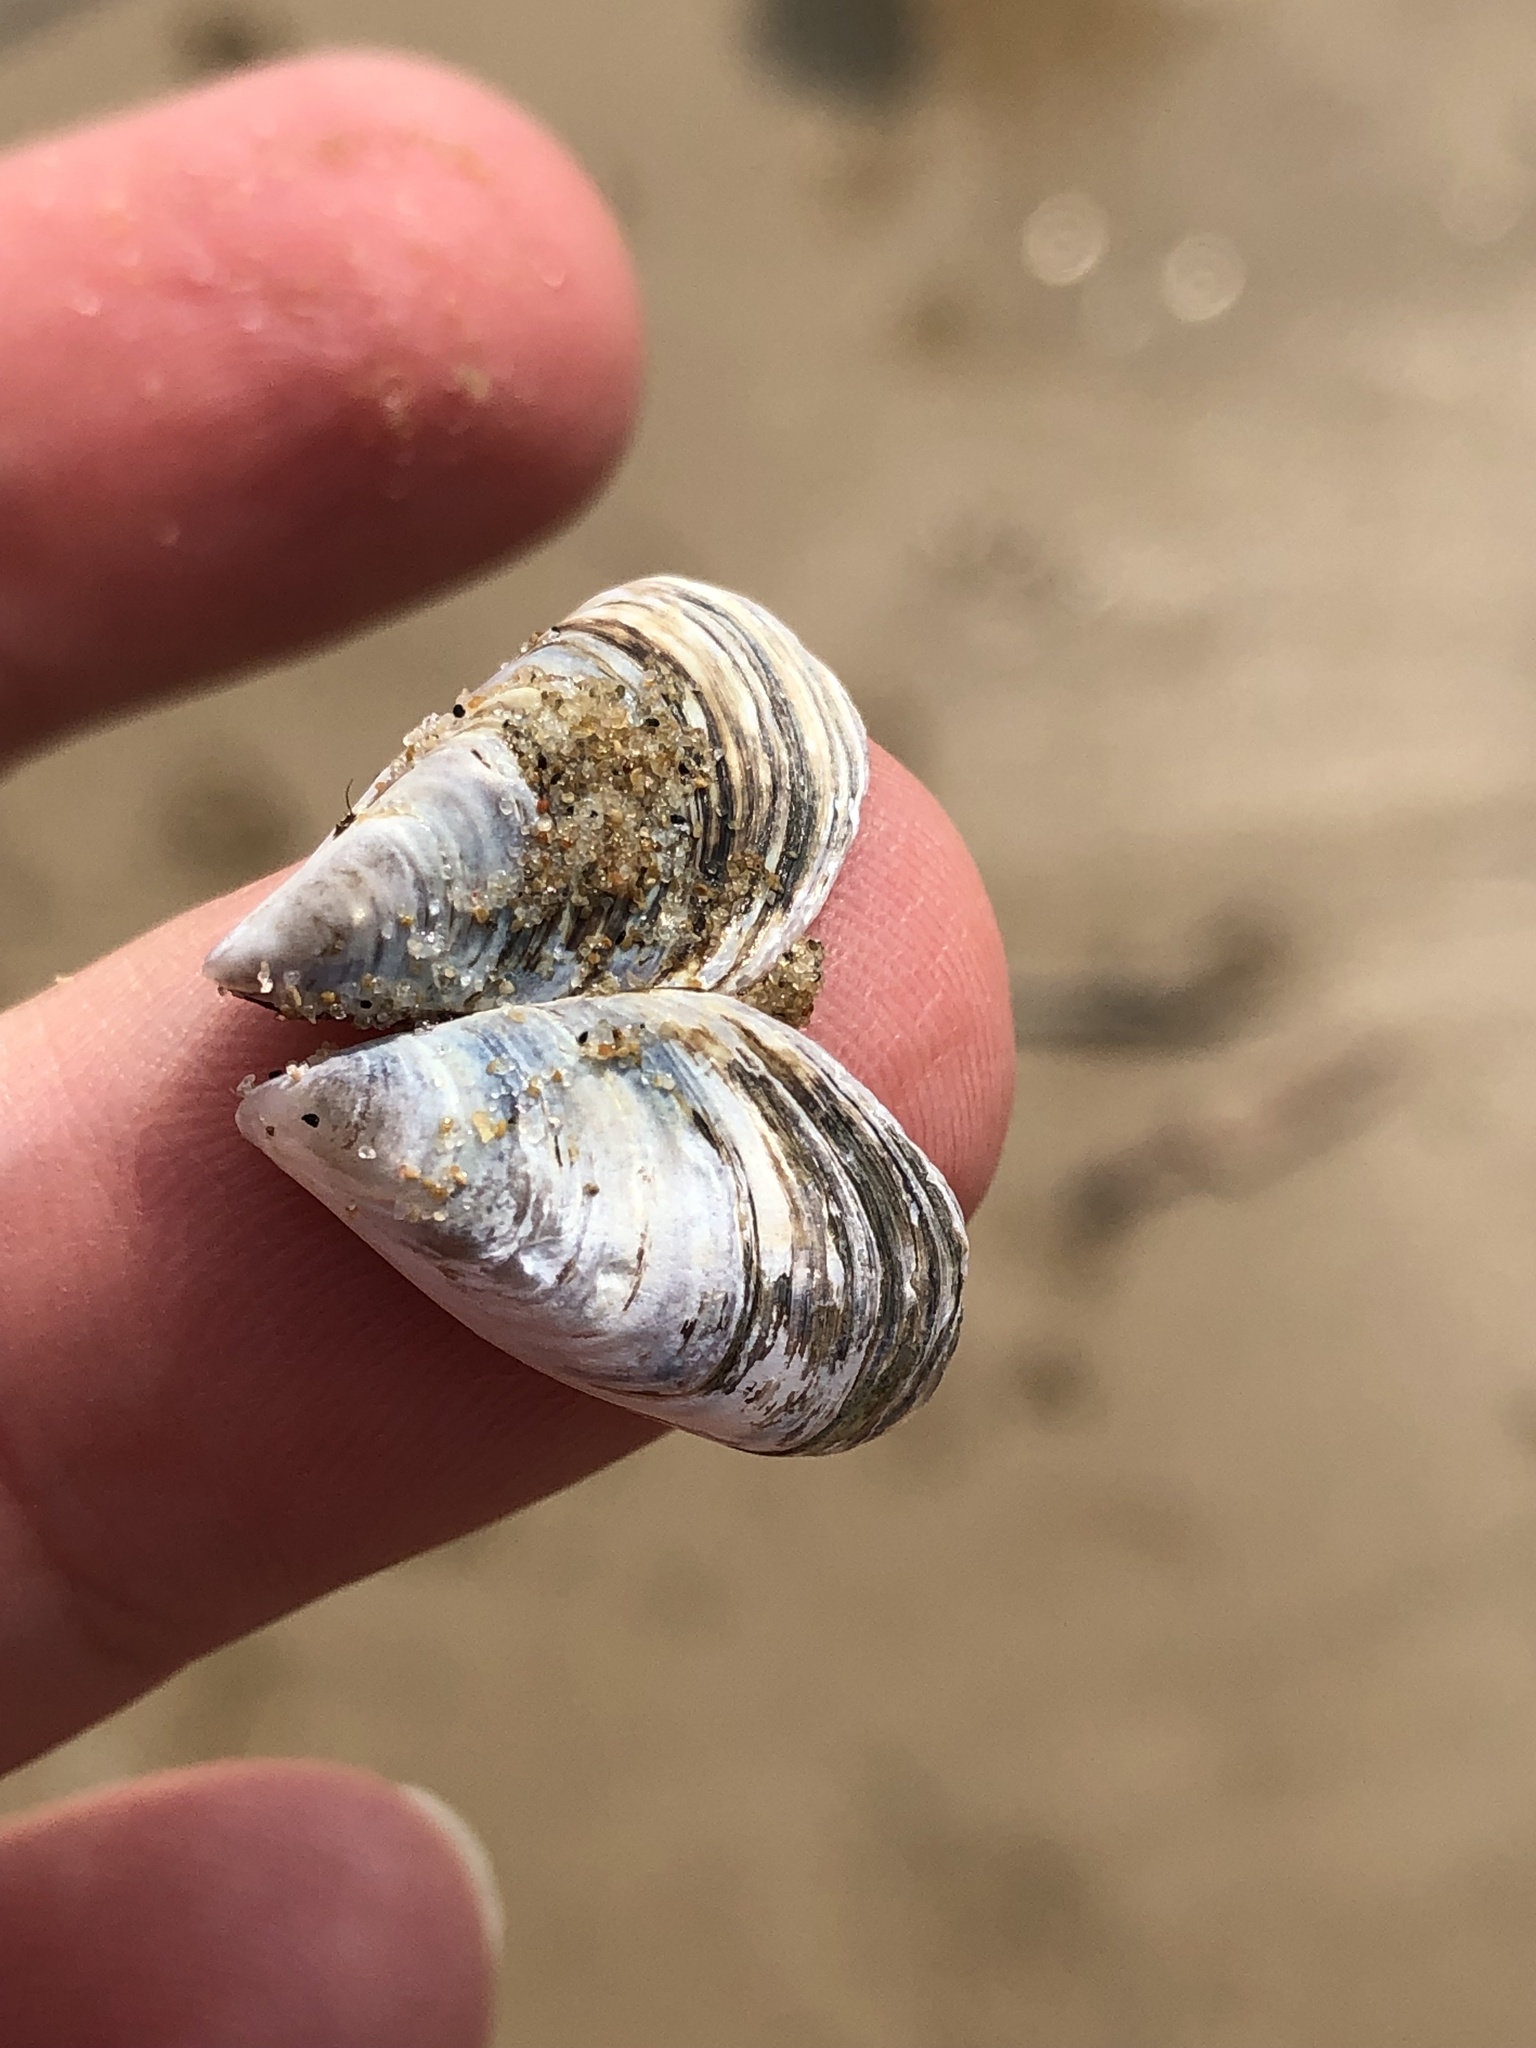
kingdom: Animalia
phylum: Mollusca
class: Bivalvia
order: Myida
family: Dreissenidae
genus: Dreissena
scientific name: Dreissena bugensis
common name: Quagga mussel
